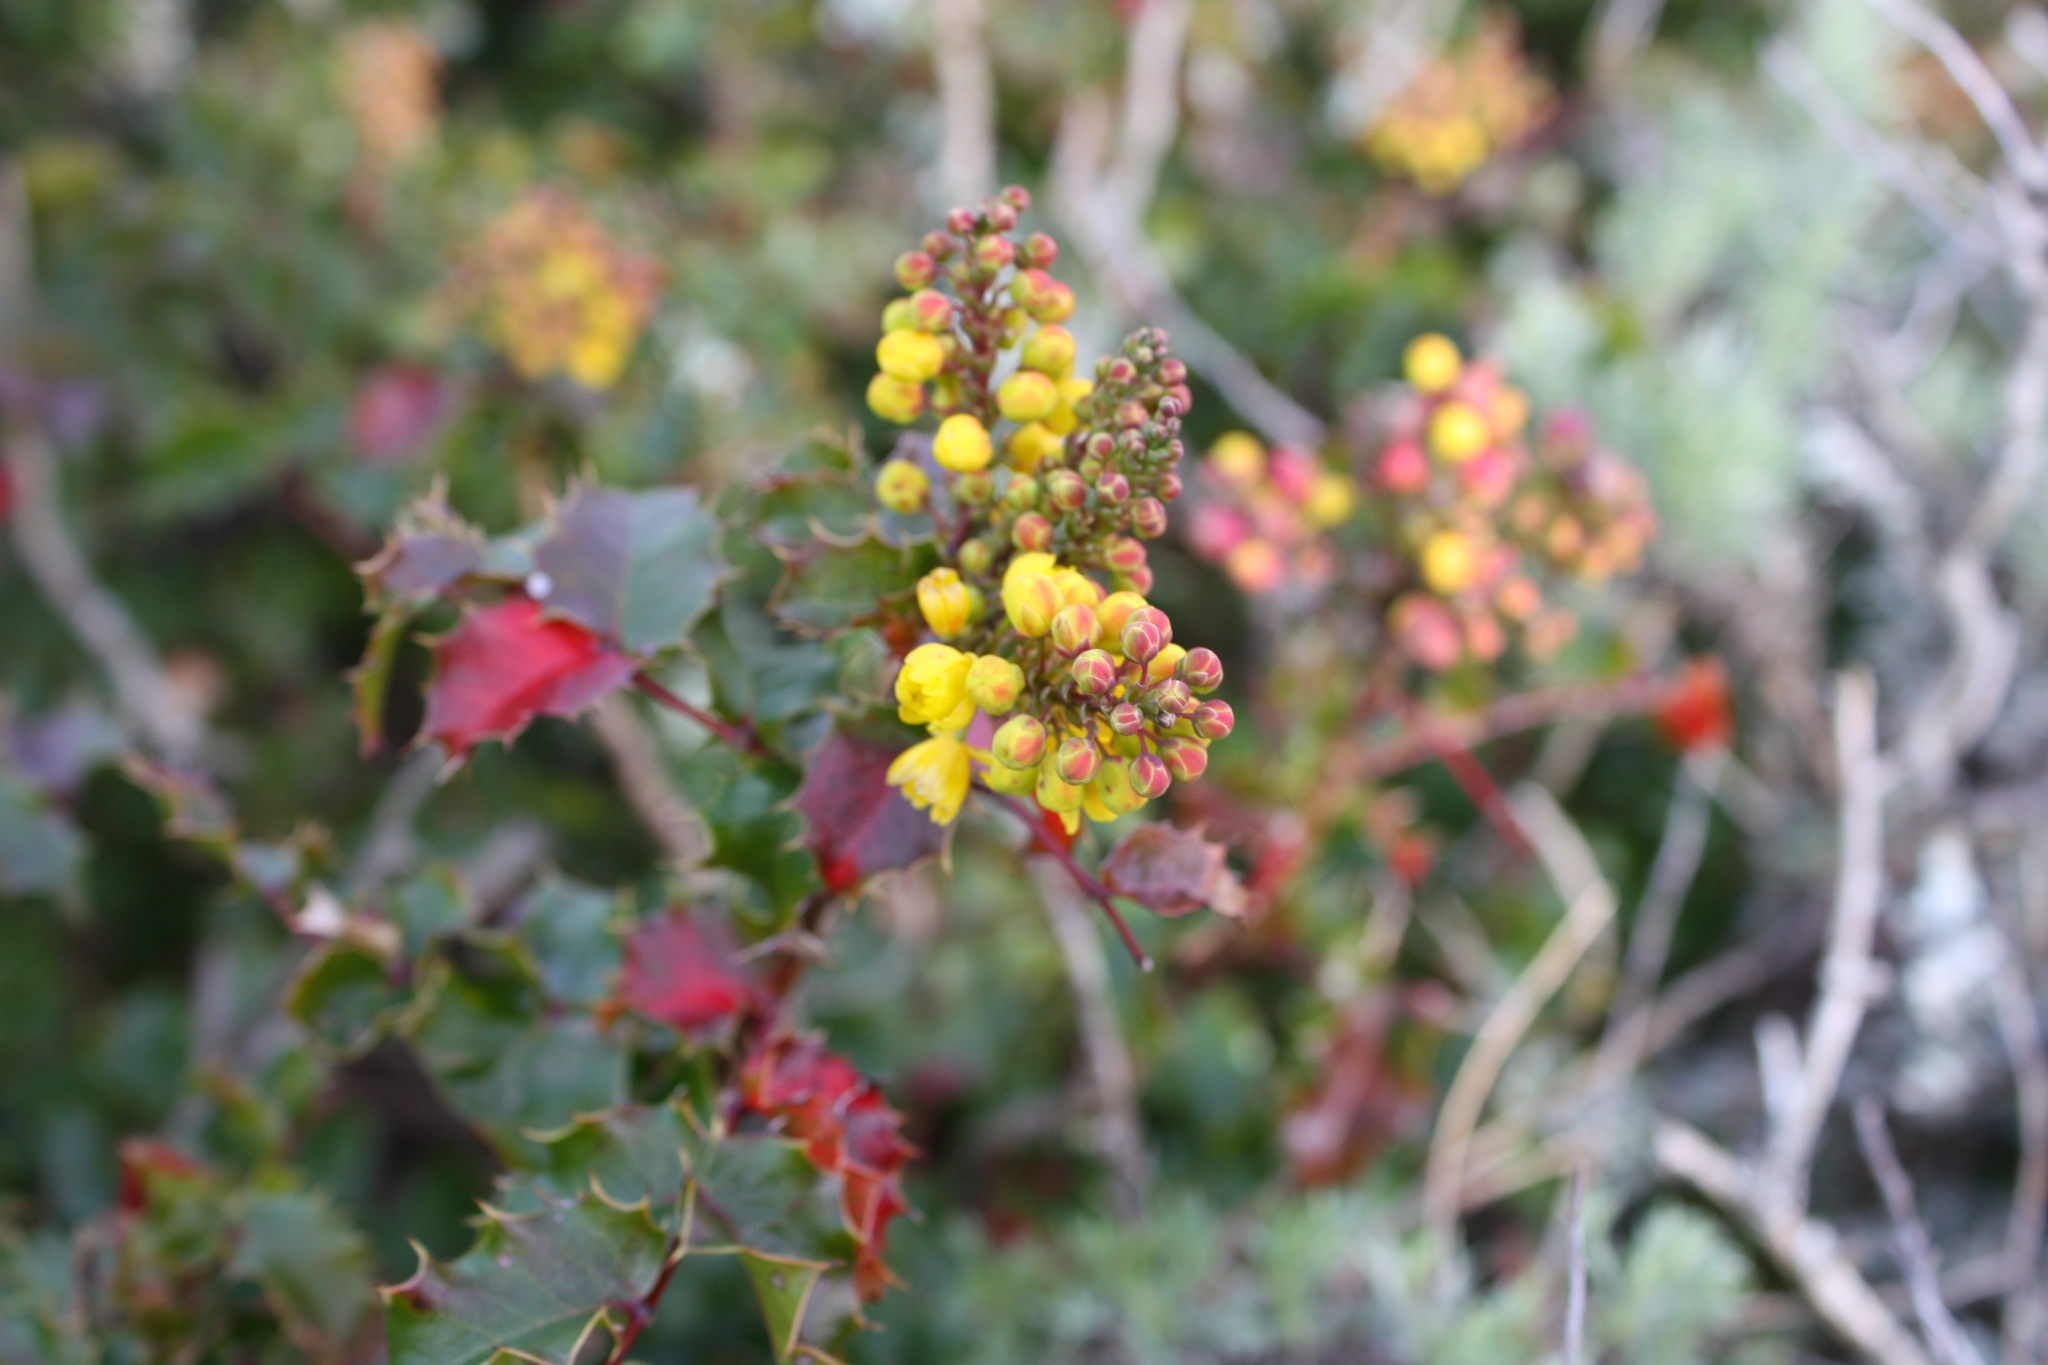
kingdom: Plantae
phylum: Tracheophyta
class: Magnoliopsida
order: Ranunculales
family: Berberidaceae
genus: Mahonia
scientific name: Mahonia
